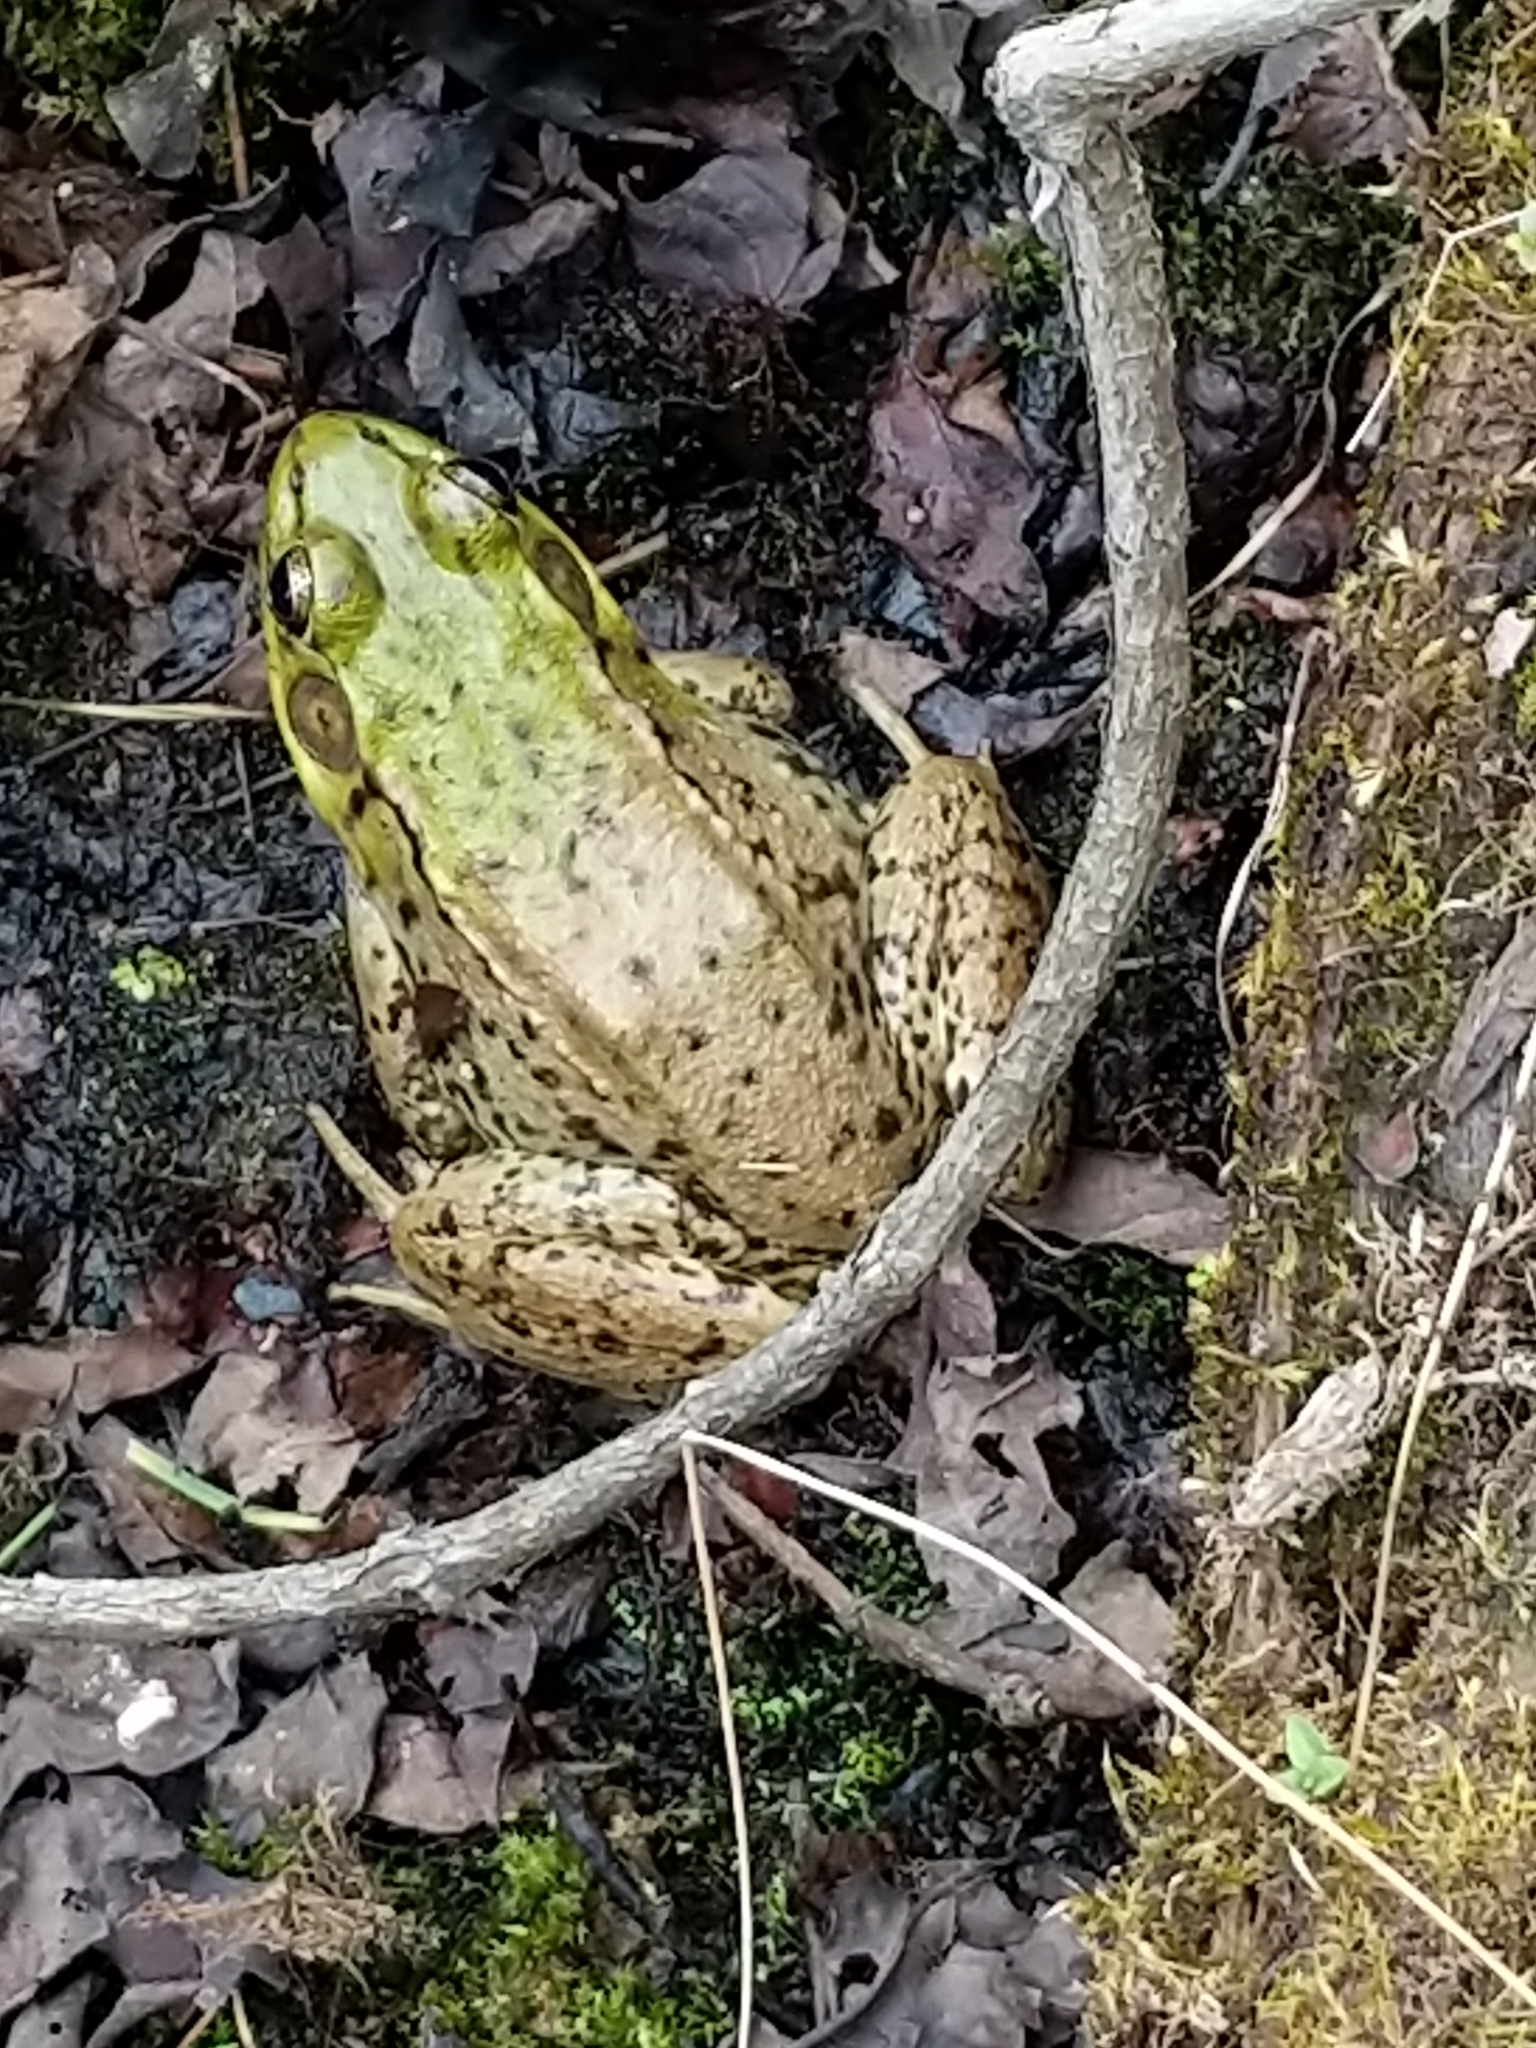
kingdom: Animalia
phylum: Chordata
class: Amphibia
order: Anura
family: Ranidae
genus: Lithobates
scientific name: Lithobates clamitans
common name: Green frog
